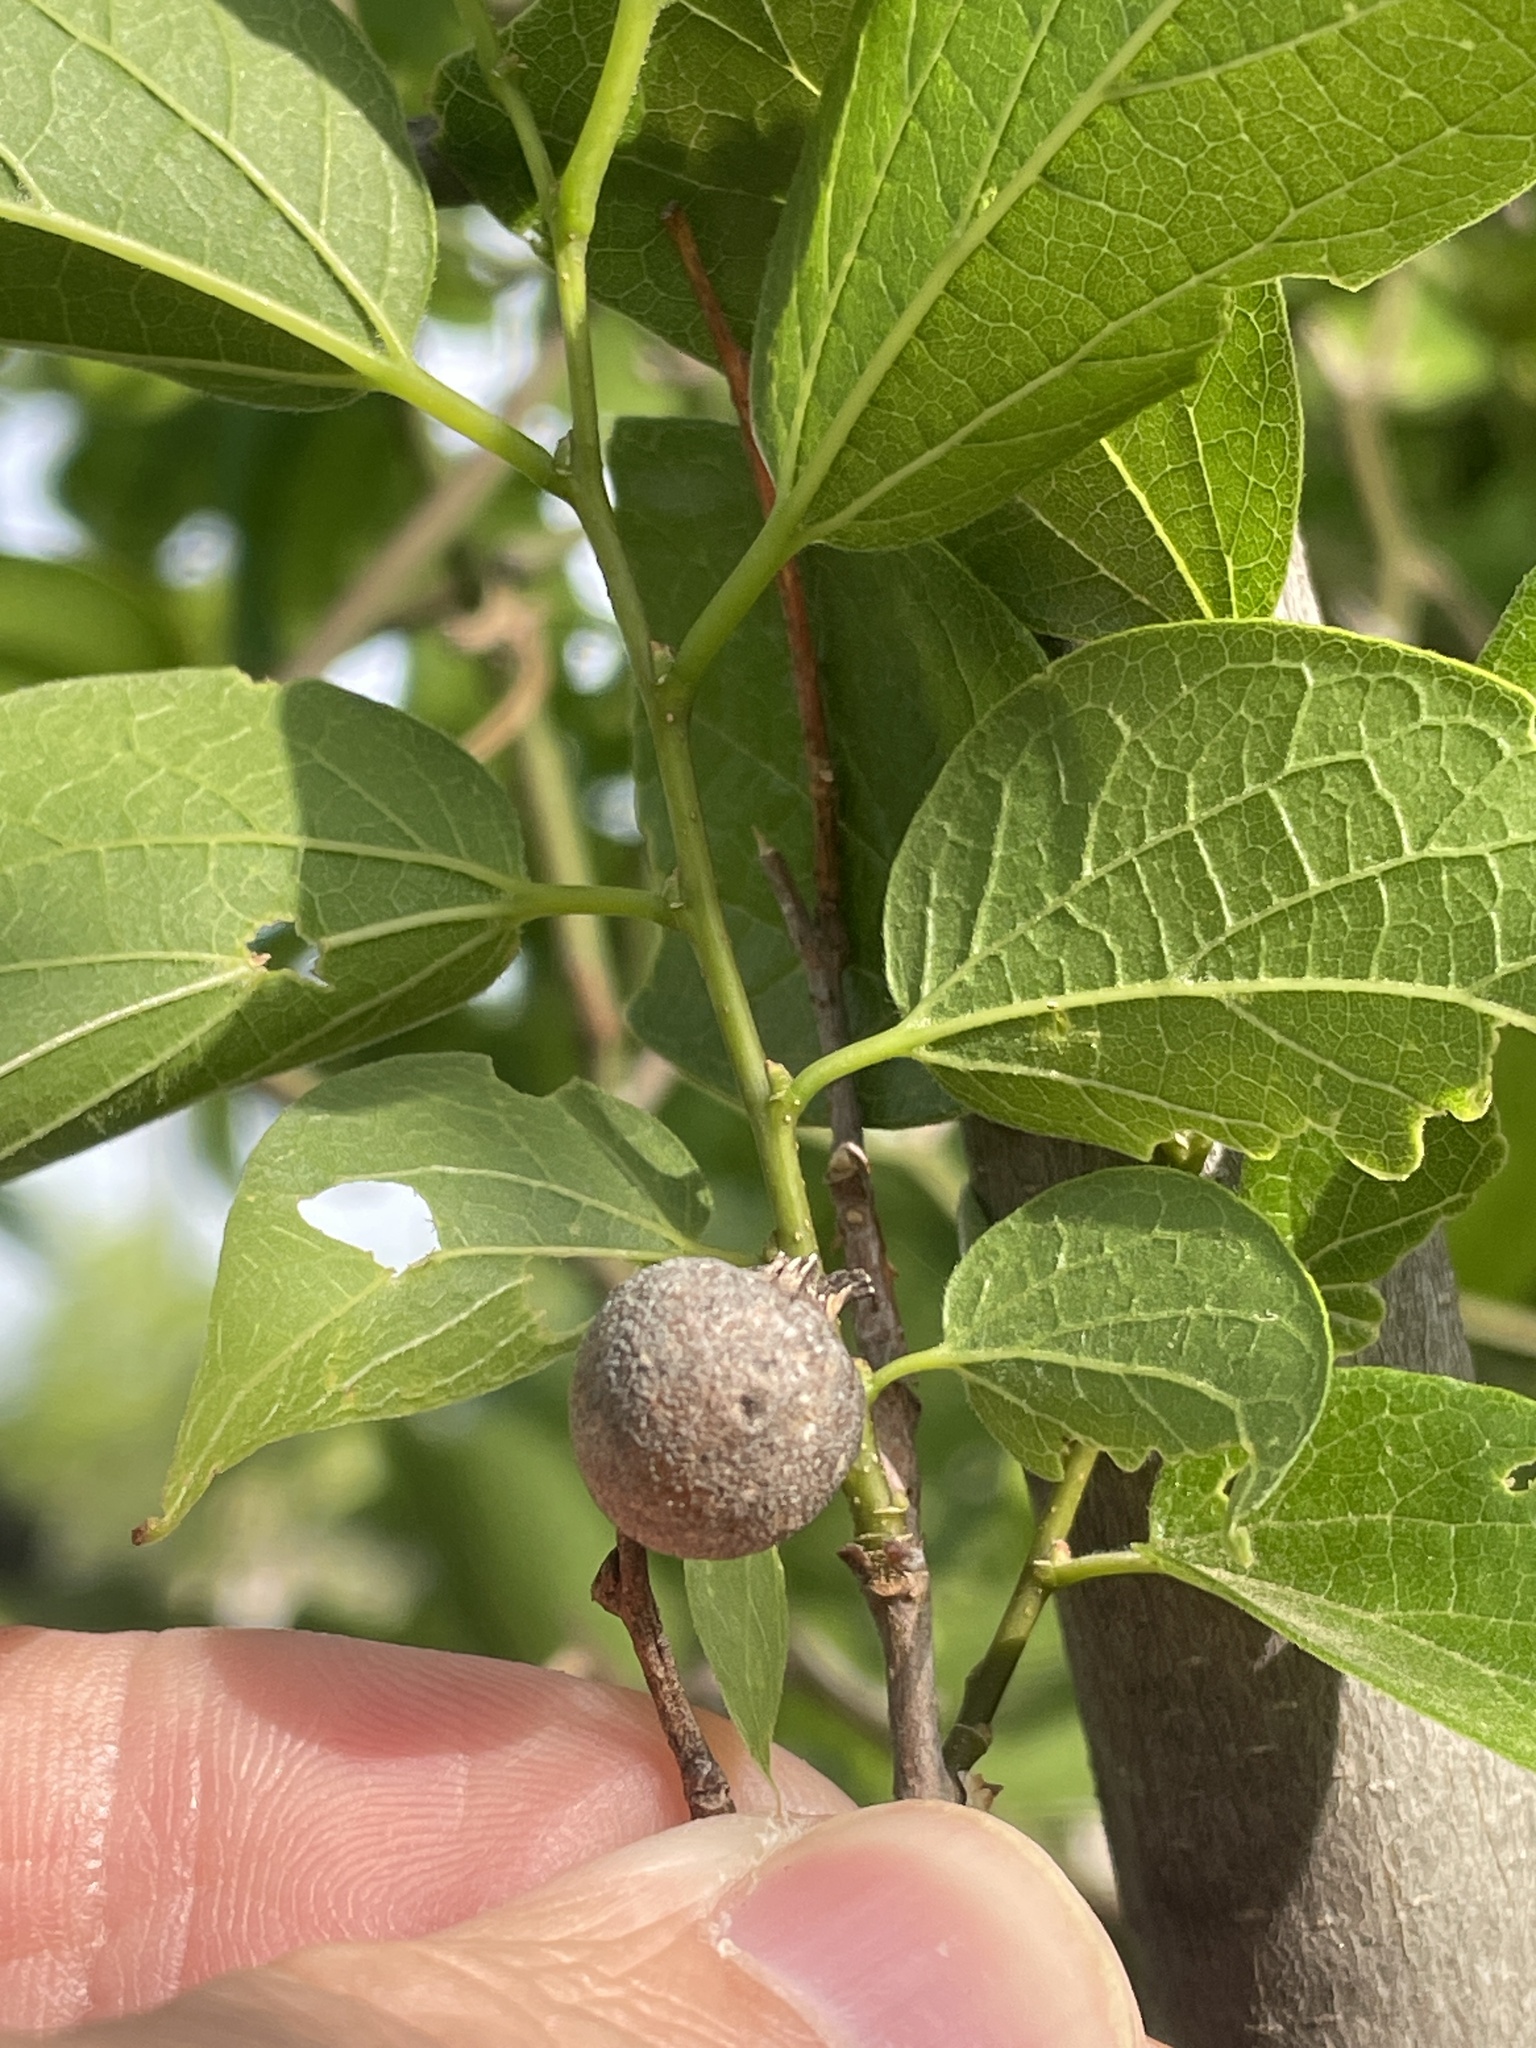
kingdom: Animalia
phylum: Arthropoda
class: Insecta
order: Hemiptera
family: Aphalaridae
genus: Pachypsylla
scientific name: Pachypsylla venusta
